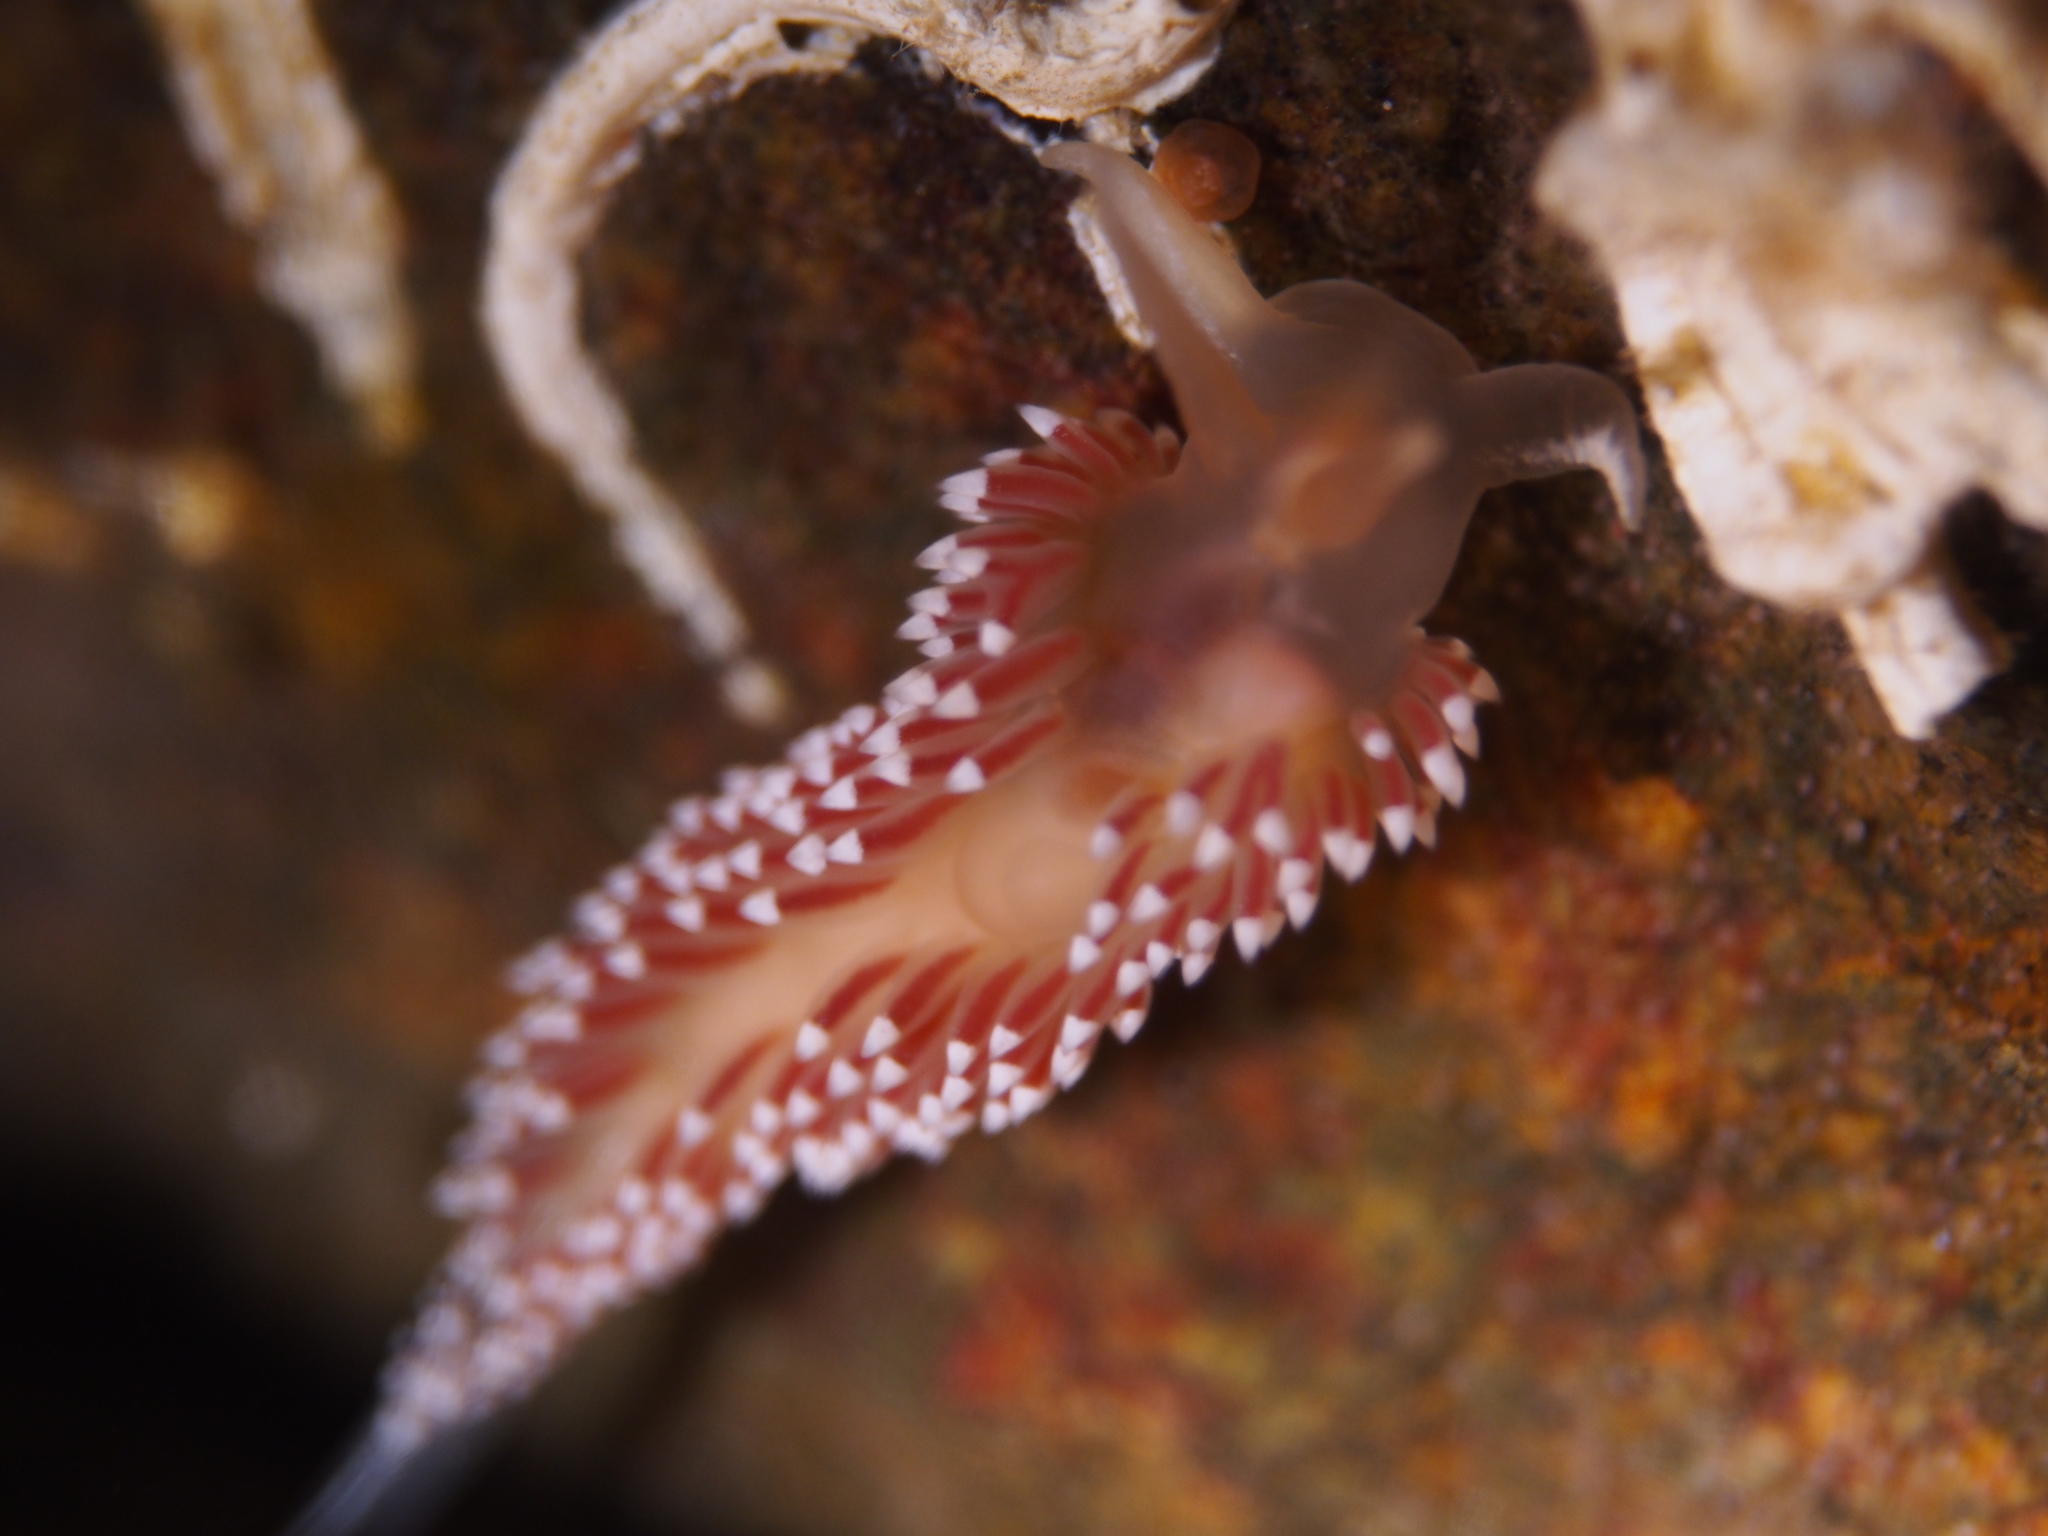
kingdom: Animalia
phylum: Mollusca
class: Gastropoda
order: Nudibranchia
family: Coryphellidae
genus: Coryphella
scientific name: Coryphella verrucosa
